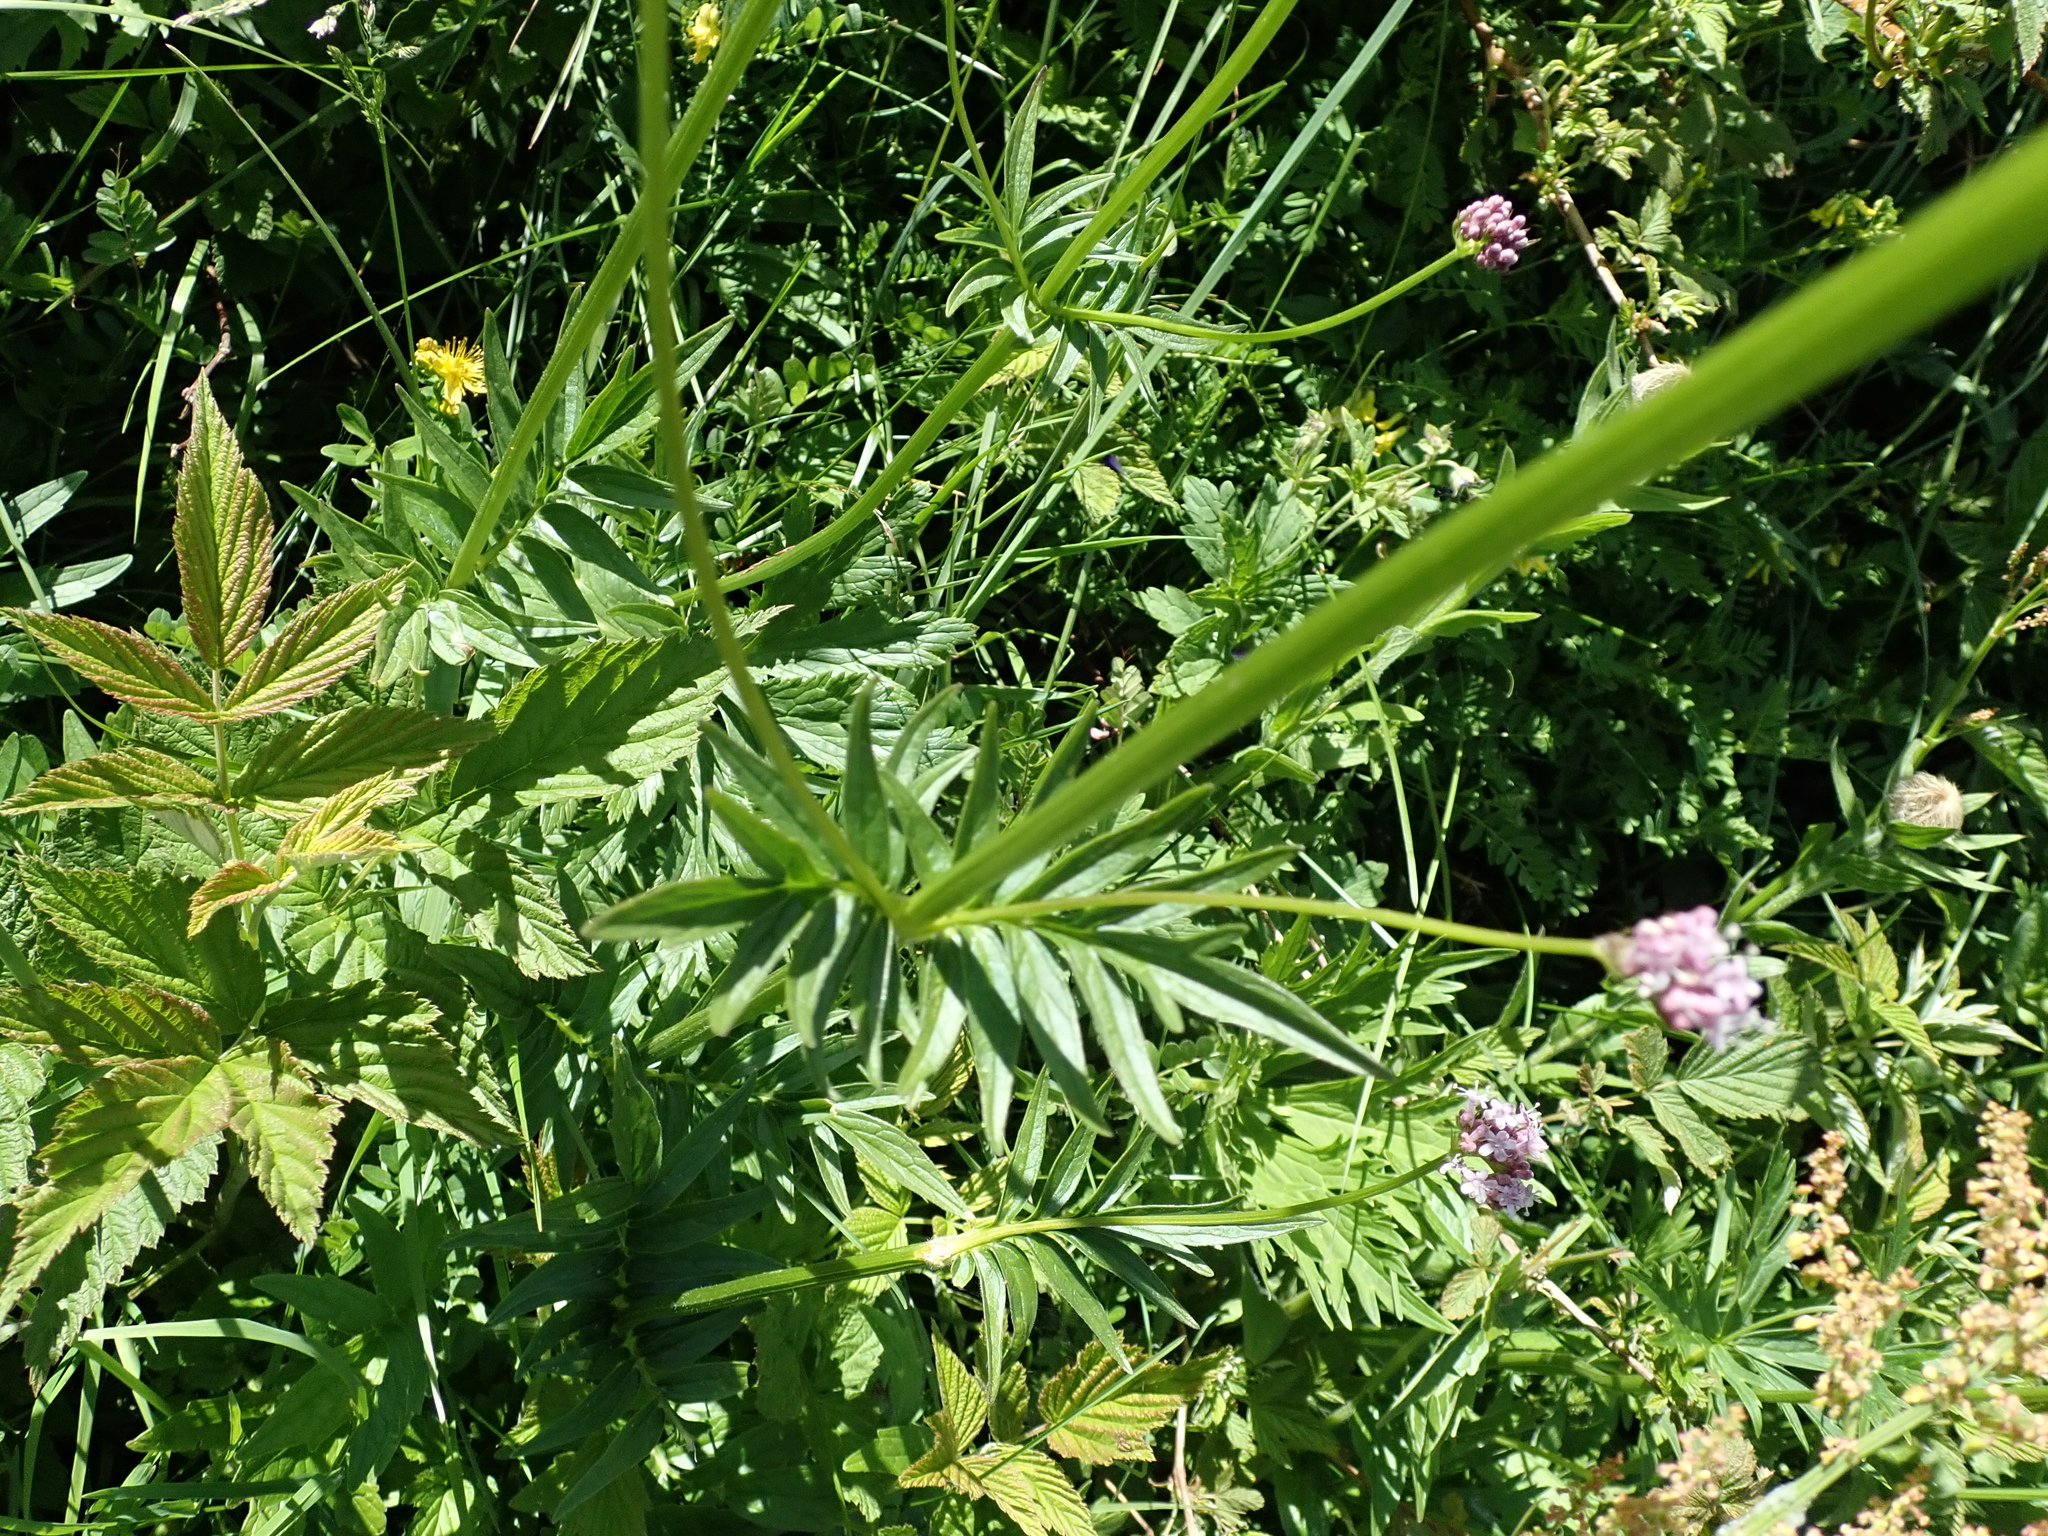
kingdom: Plantae
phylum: Tracheophyta
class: Magnoliopsida
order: Dipsacales
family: Caprifoliaceae
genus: Valeriana
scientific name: Valeriana officinalis
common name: Common valerian
